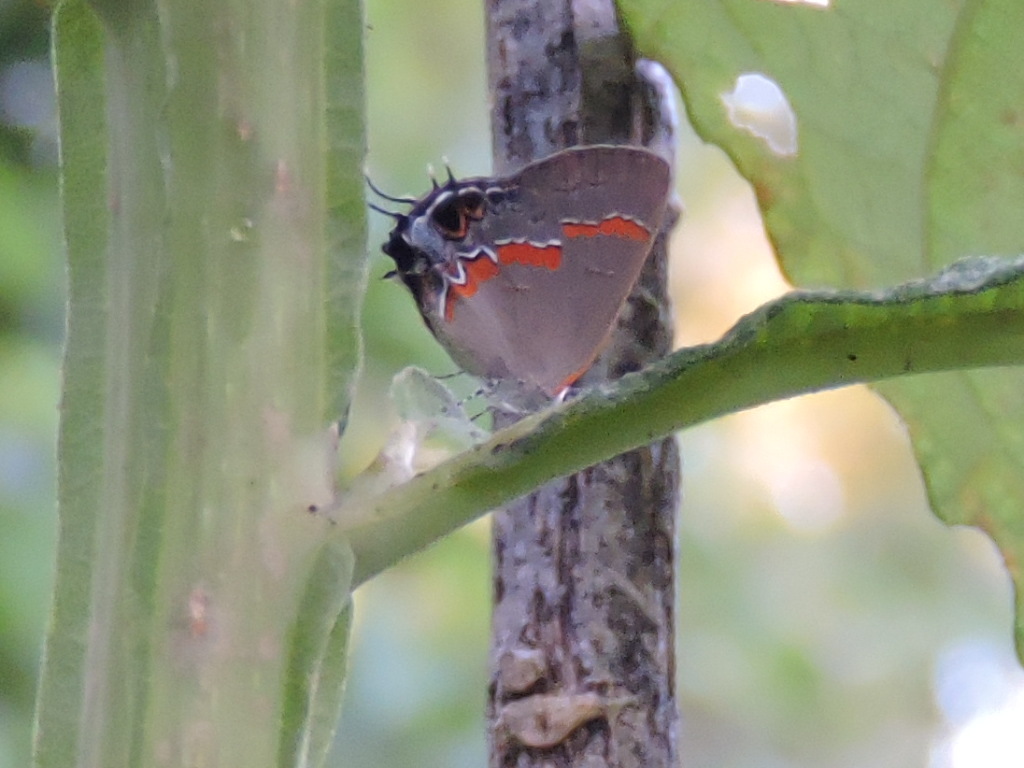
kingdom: Animalia
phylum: Arthropoda
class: Insecta
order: Lepidoptera
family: Lycaenidae
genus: Calycopis
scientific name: Calycopis cecrops
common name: Red-banded hairstreak
